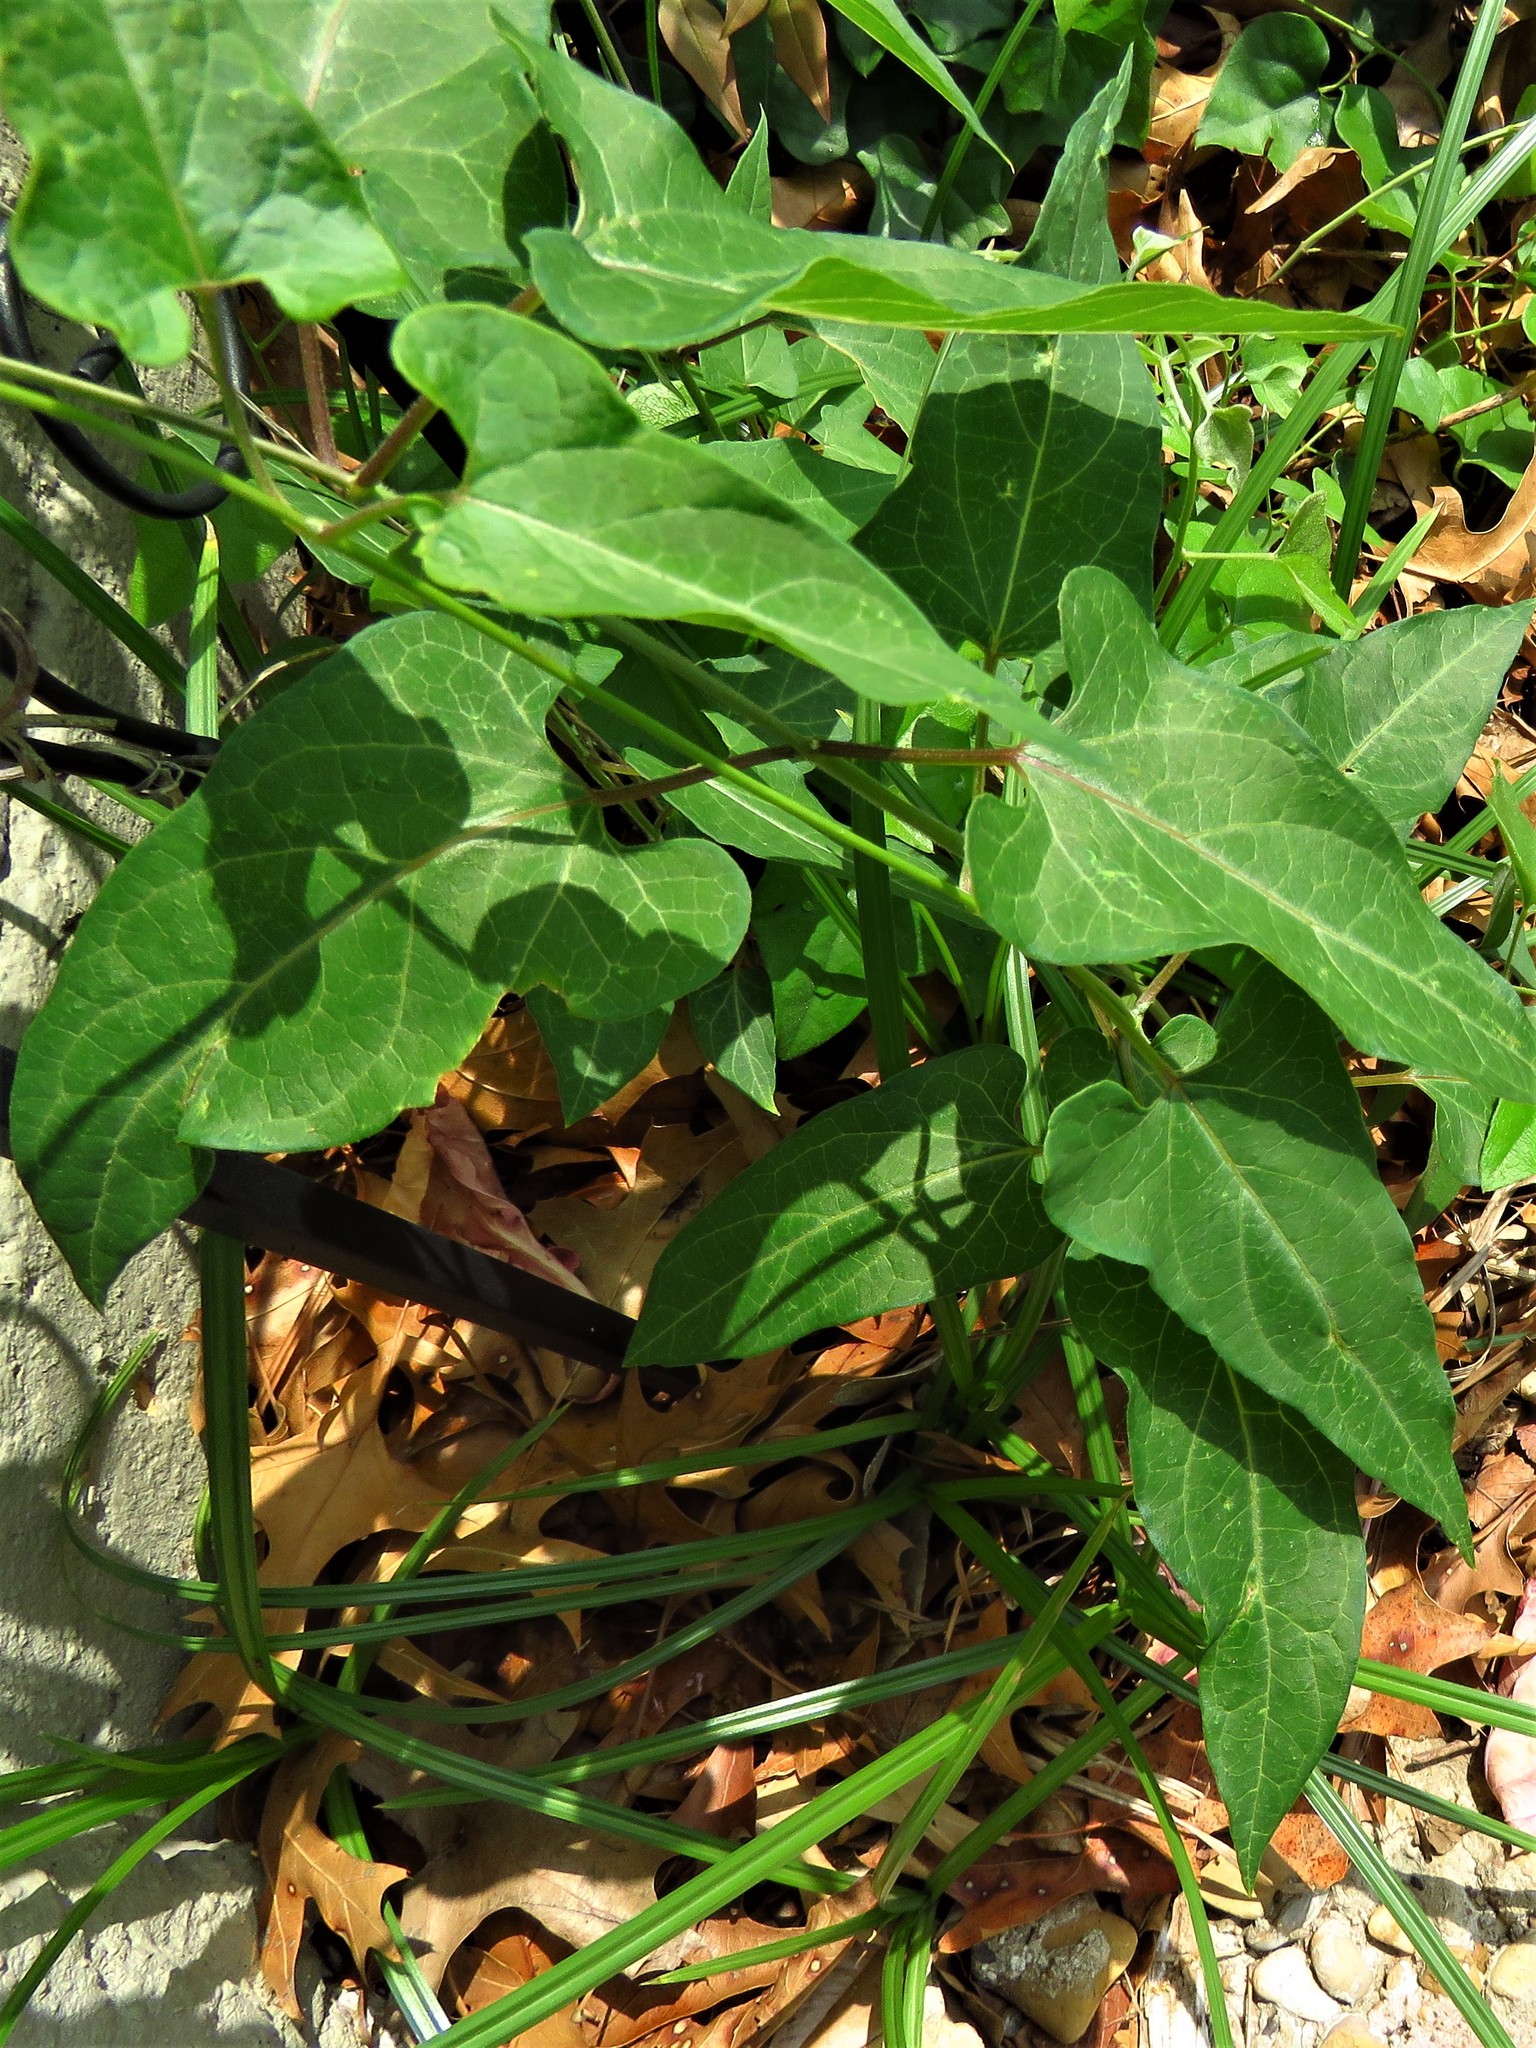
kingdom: Plantae
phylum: Tracheophyta
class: Magnoliopsida
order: Gentianales
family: Apocynaceae
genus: Cynanchum
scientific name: Cynanchum laeve
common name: Sandvine
